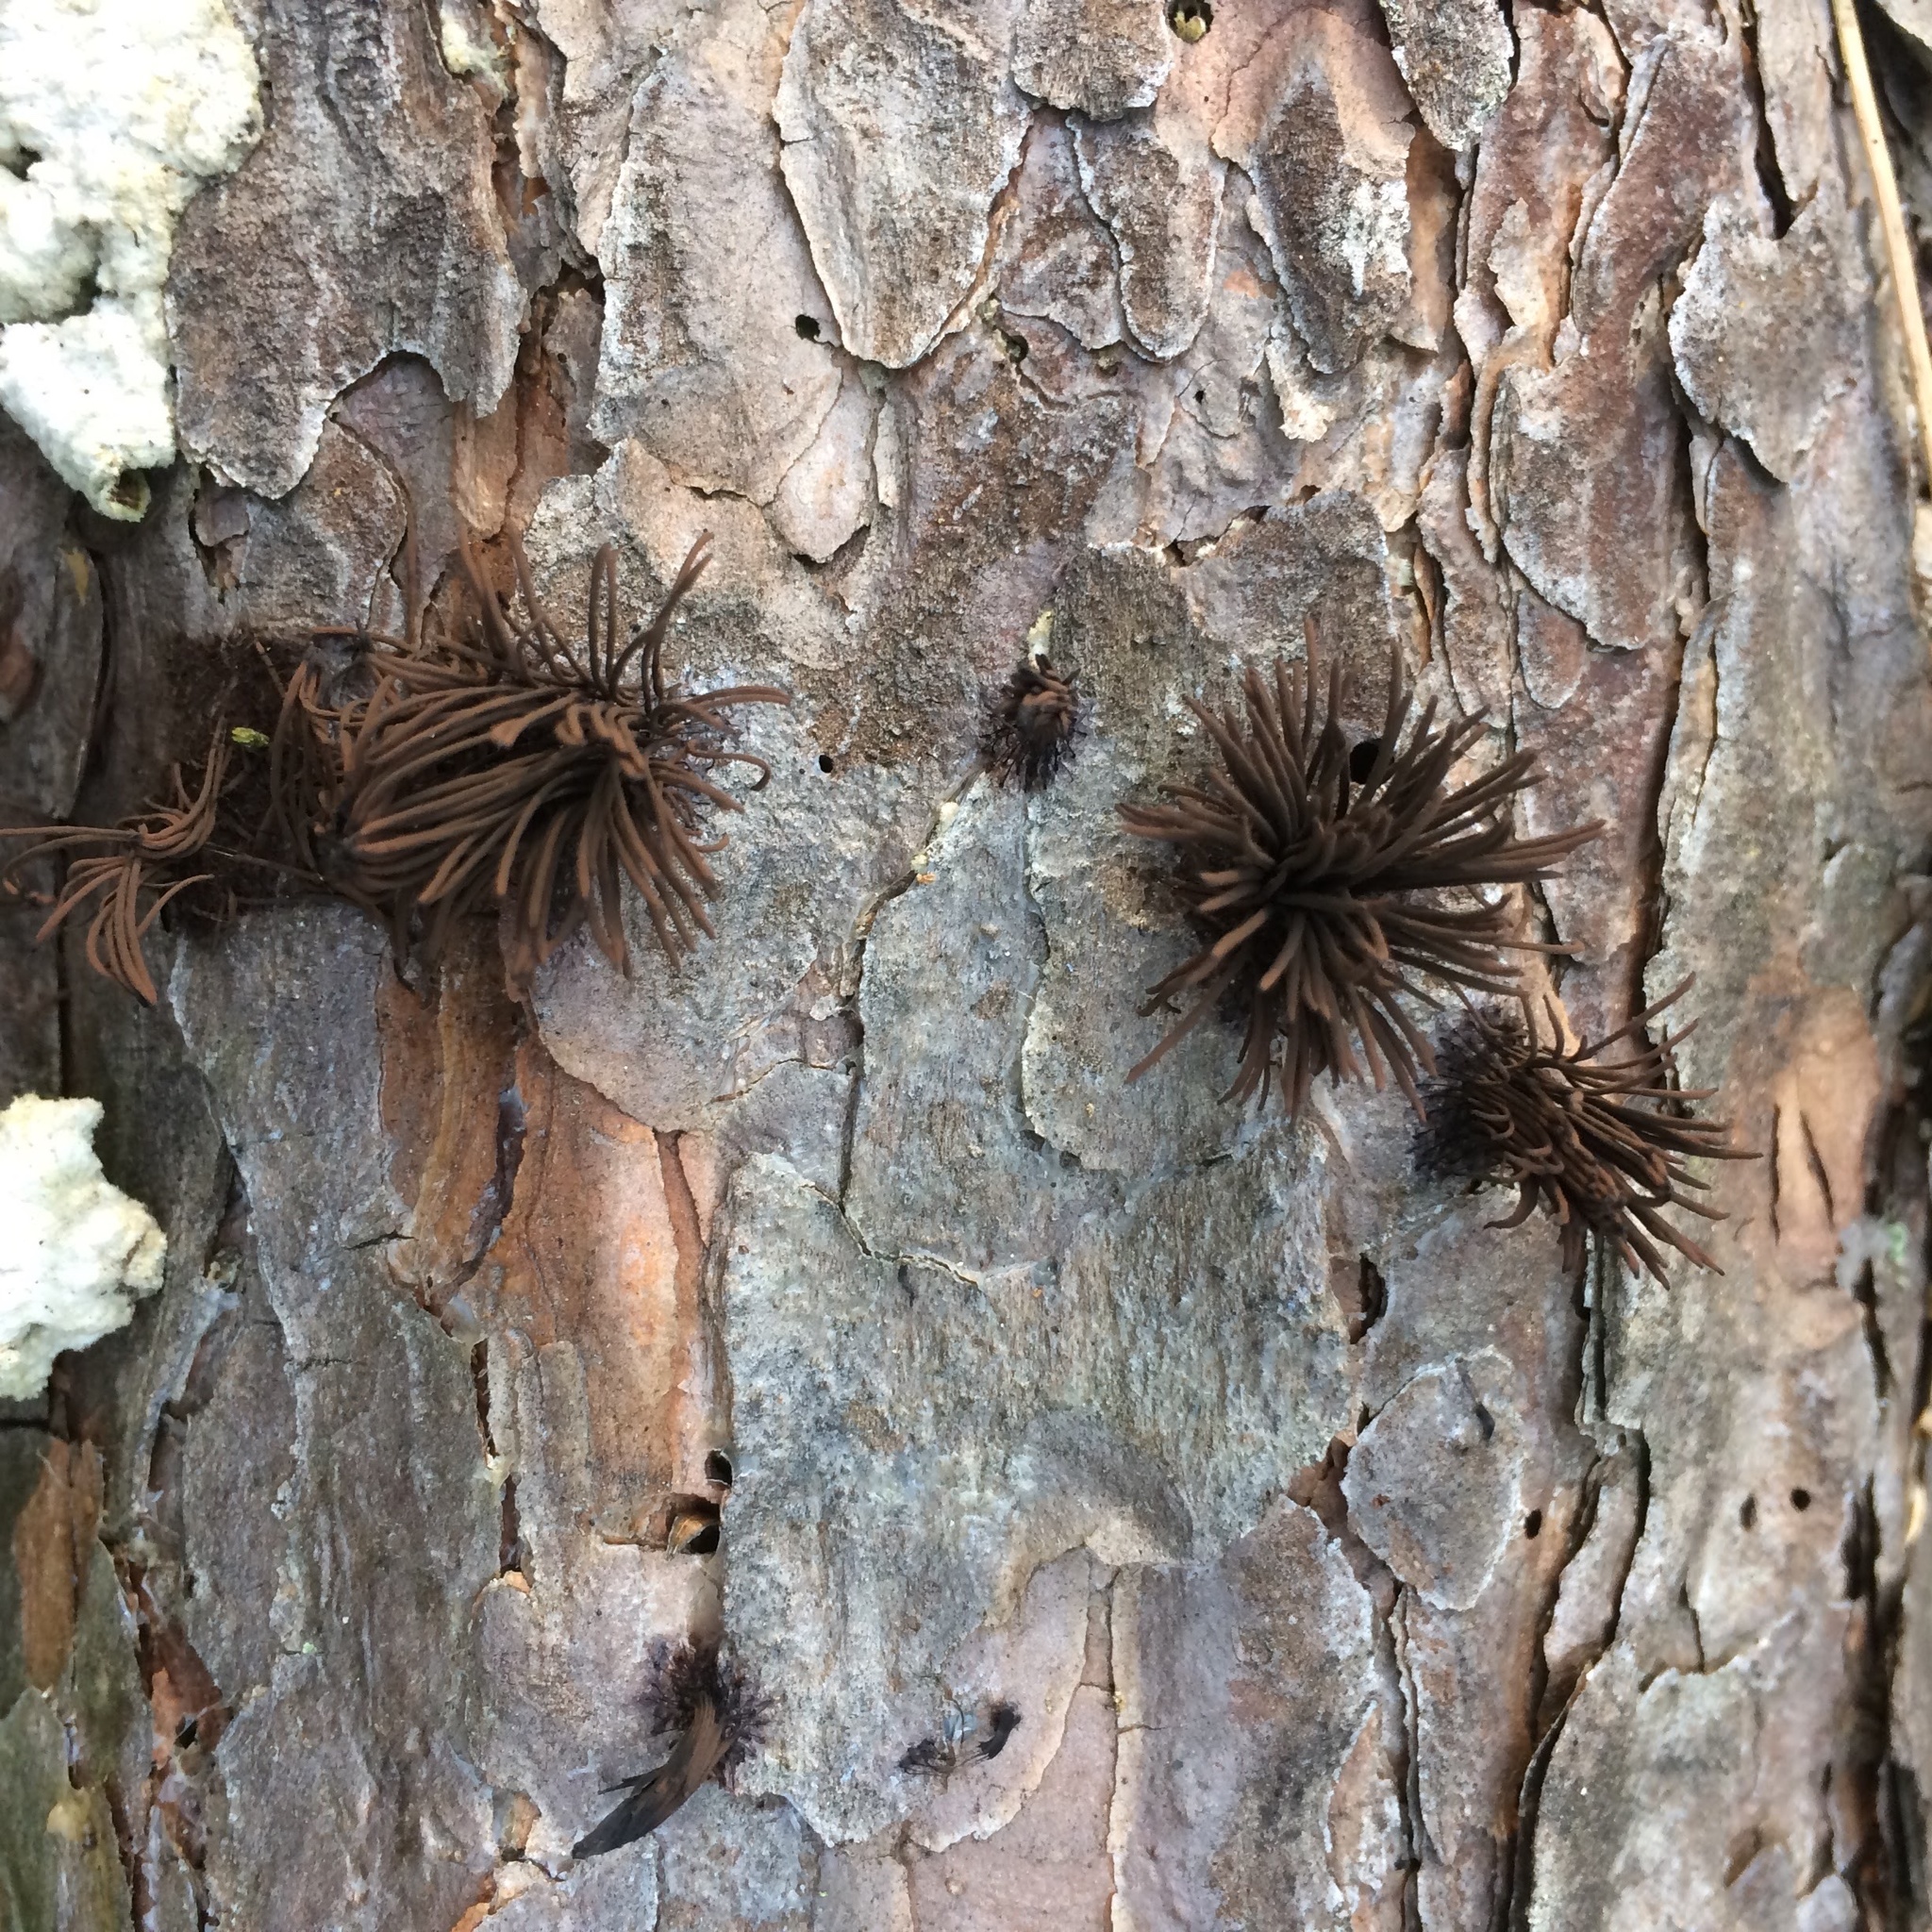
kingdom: Protozoa
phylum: Mycetozoa
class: Myxomycetes
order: Stemonitidales
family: Stemonitidaceae
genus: Stemonitis
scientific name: Stemonitis splendens
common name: Chocolate tube slime
